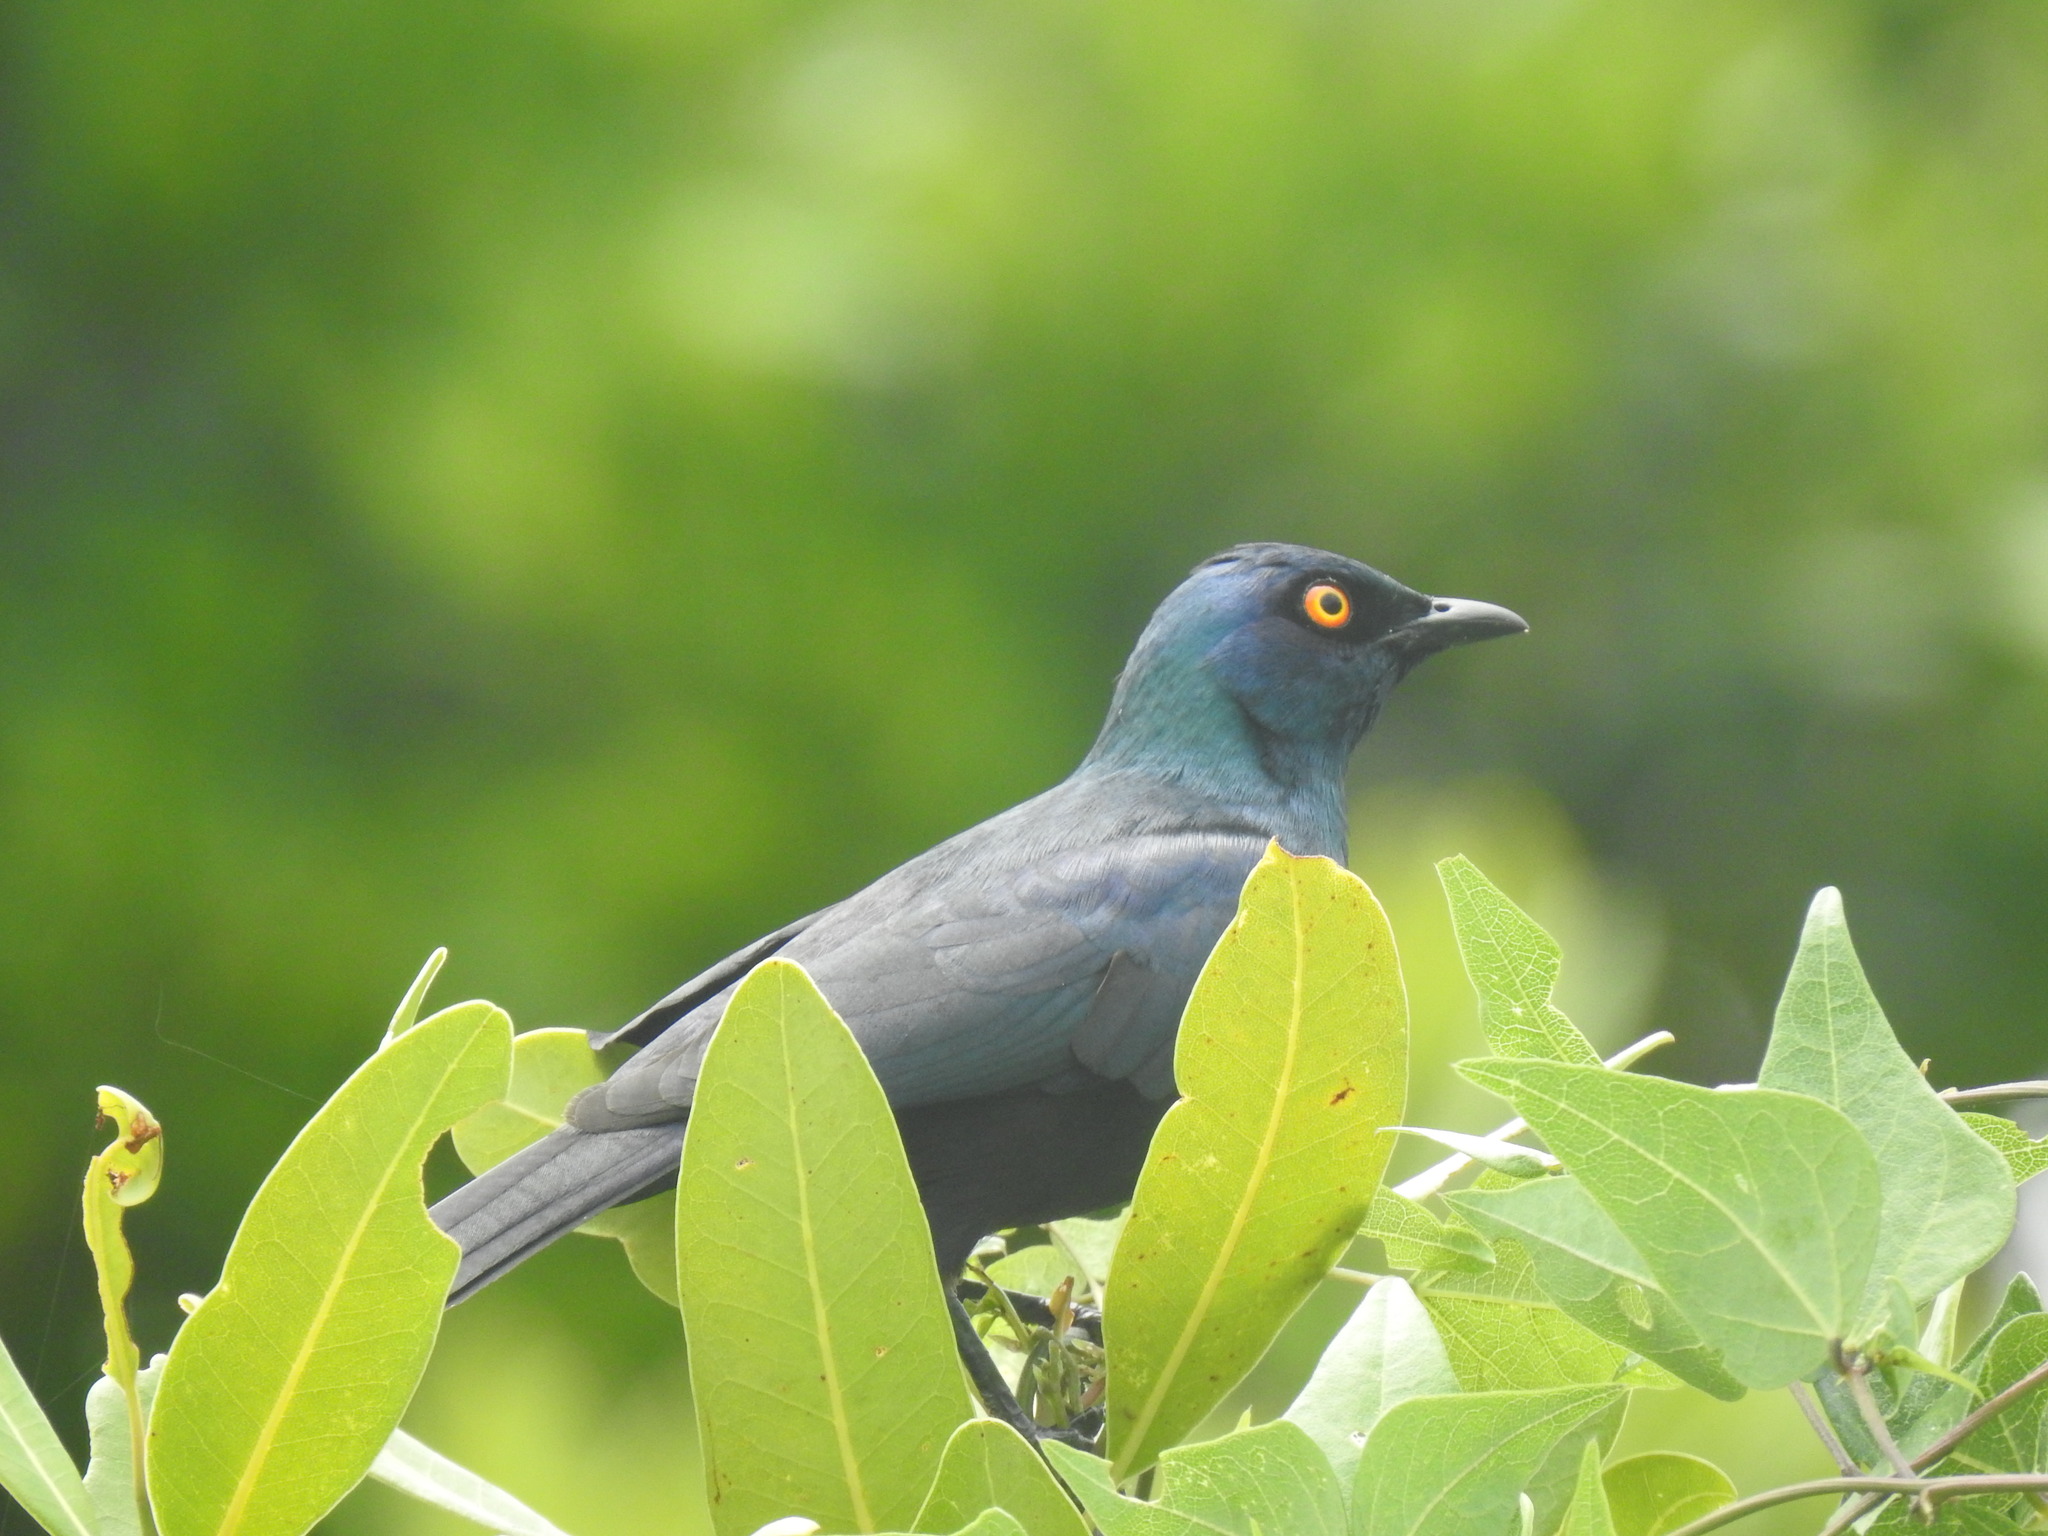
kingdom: Animalia
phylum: Chordata
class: Aves
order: Passeriformes
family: Sturnidae
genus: Notopholia
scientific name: Notopholia corrusca
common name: Black-bellied starling
